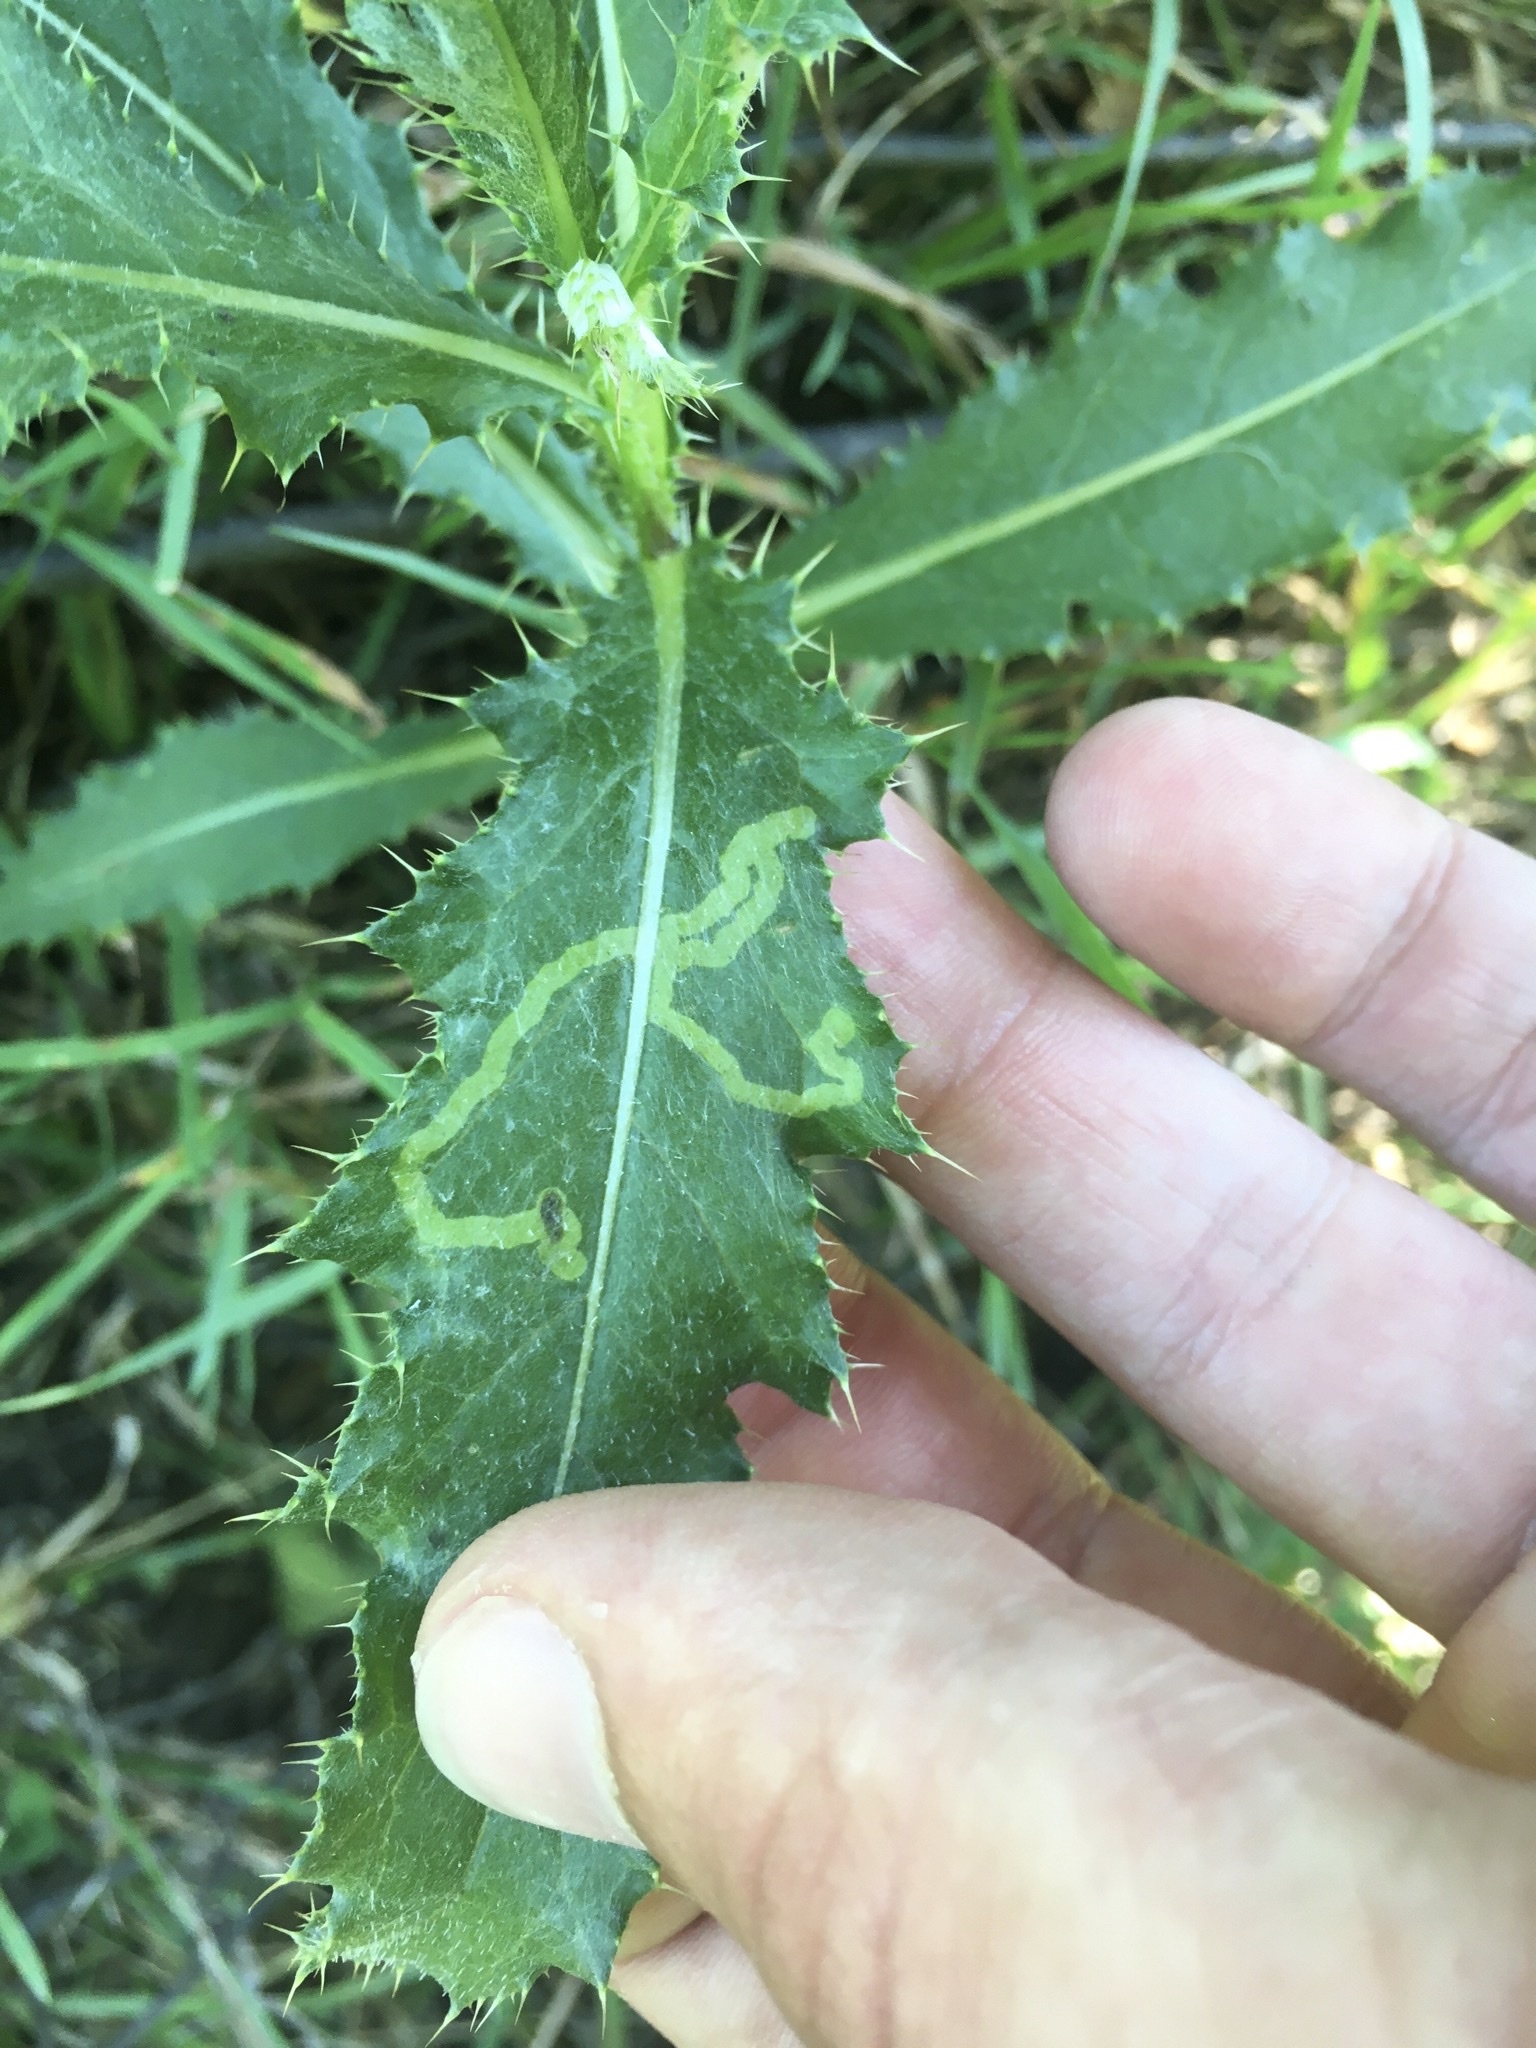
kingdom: Animalia
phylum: Arthropoda
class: Insecta
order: Diptera
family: Agromyzidae
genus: Phytomyza
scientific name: Phytomyza spinaciae
